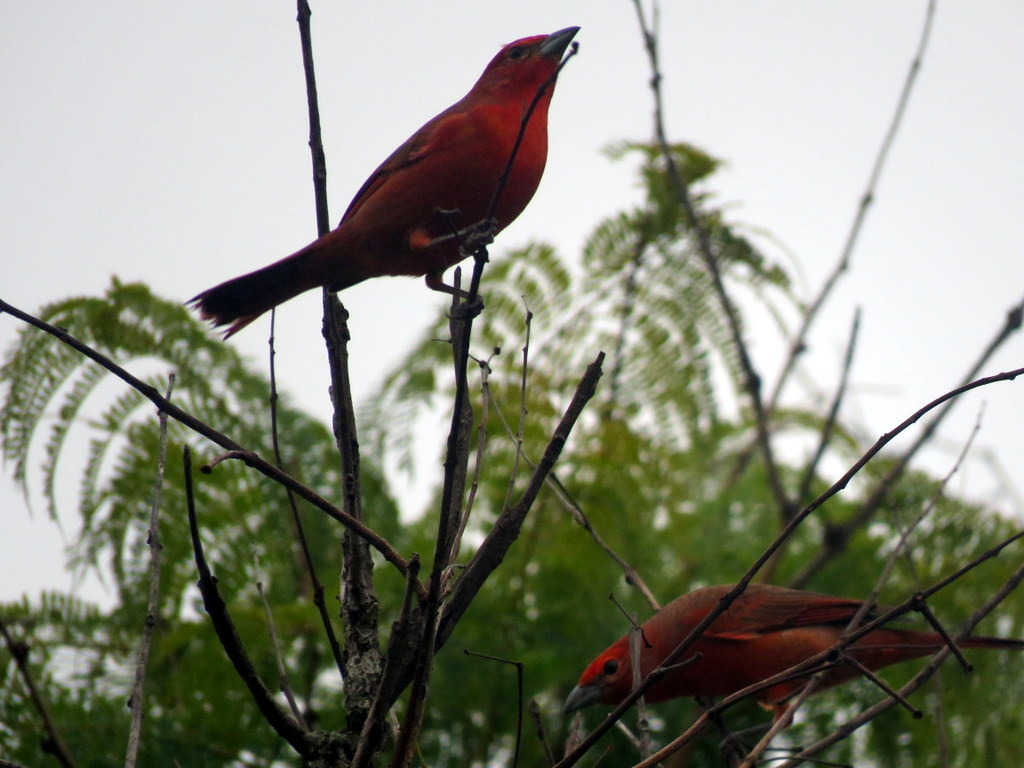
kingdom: Animalia
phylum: Chordata
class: Aves
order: Passeriformes
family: Cardinalidae
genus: Piranga
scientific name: Piranga flava
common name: Red tanager
